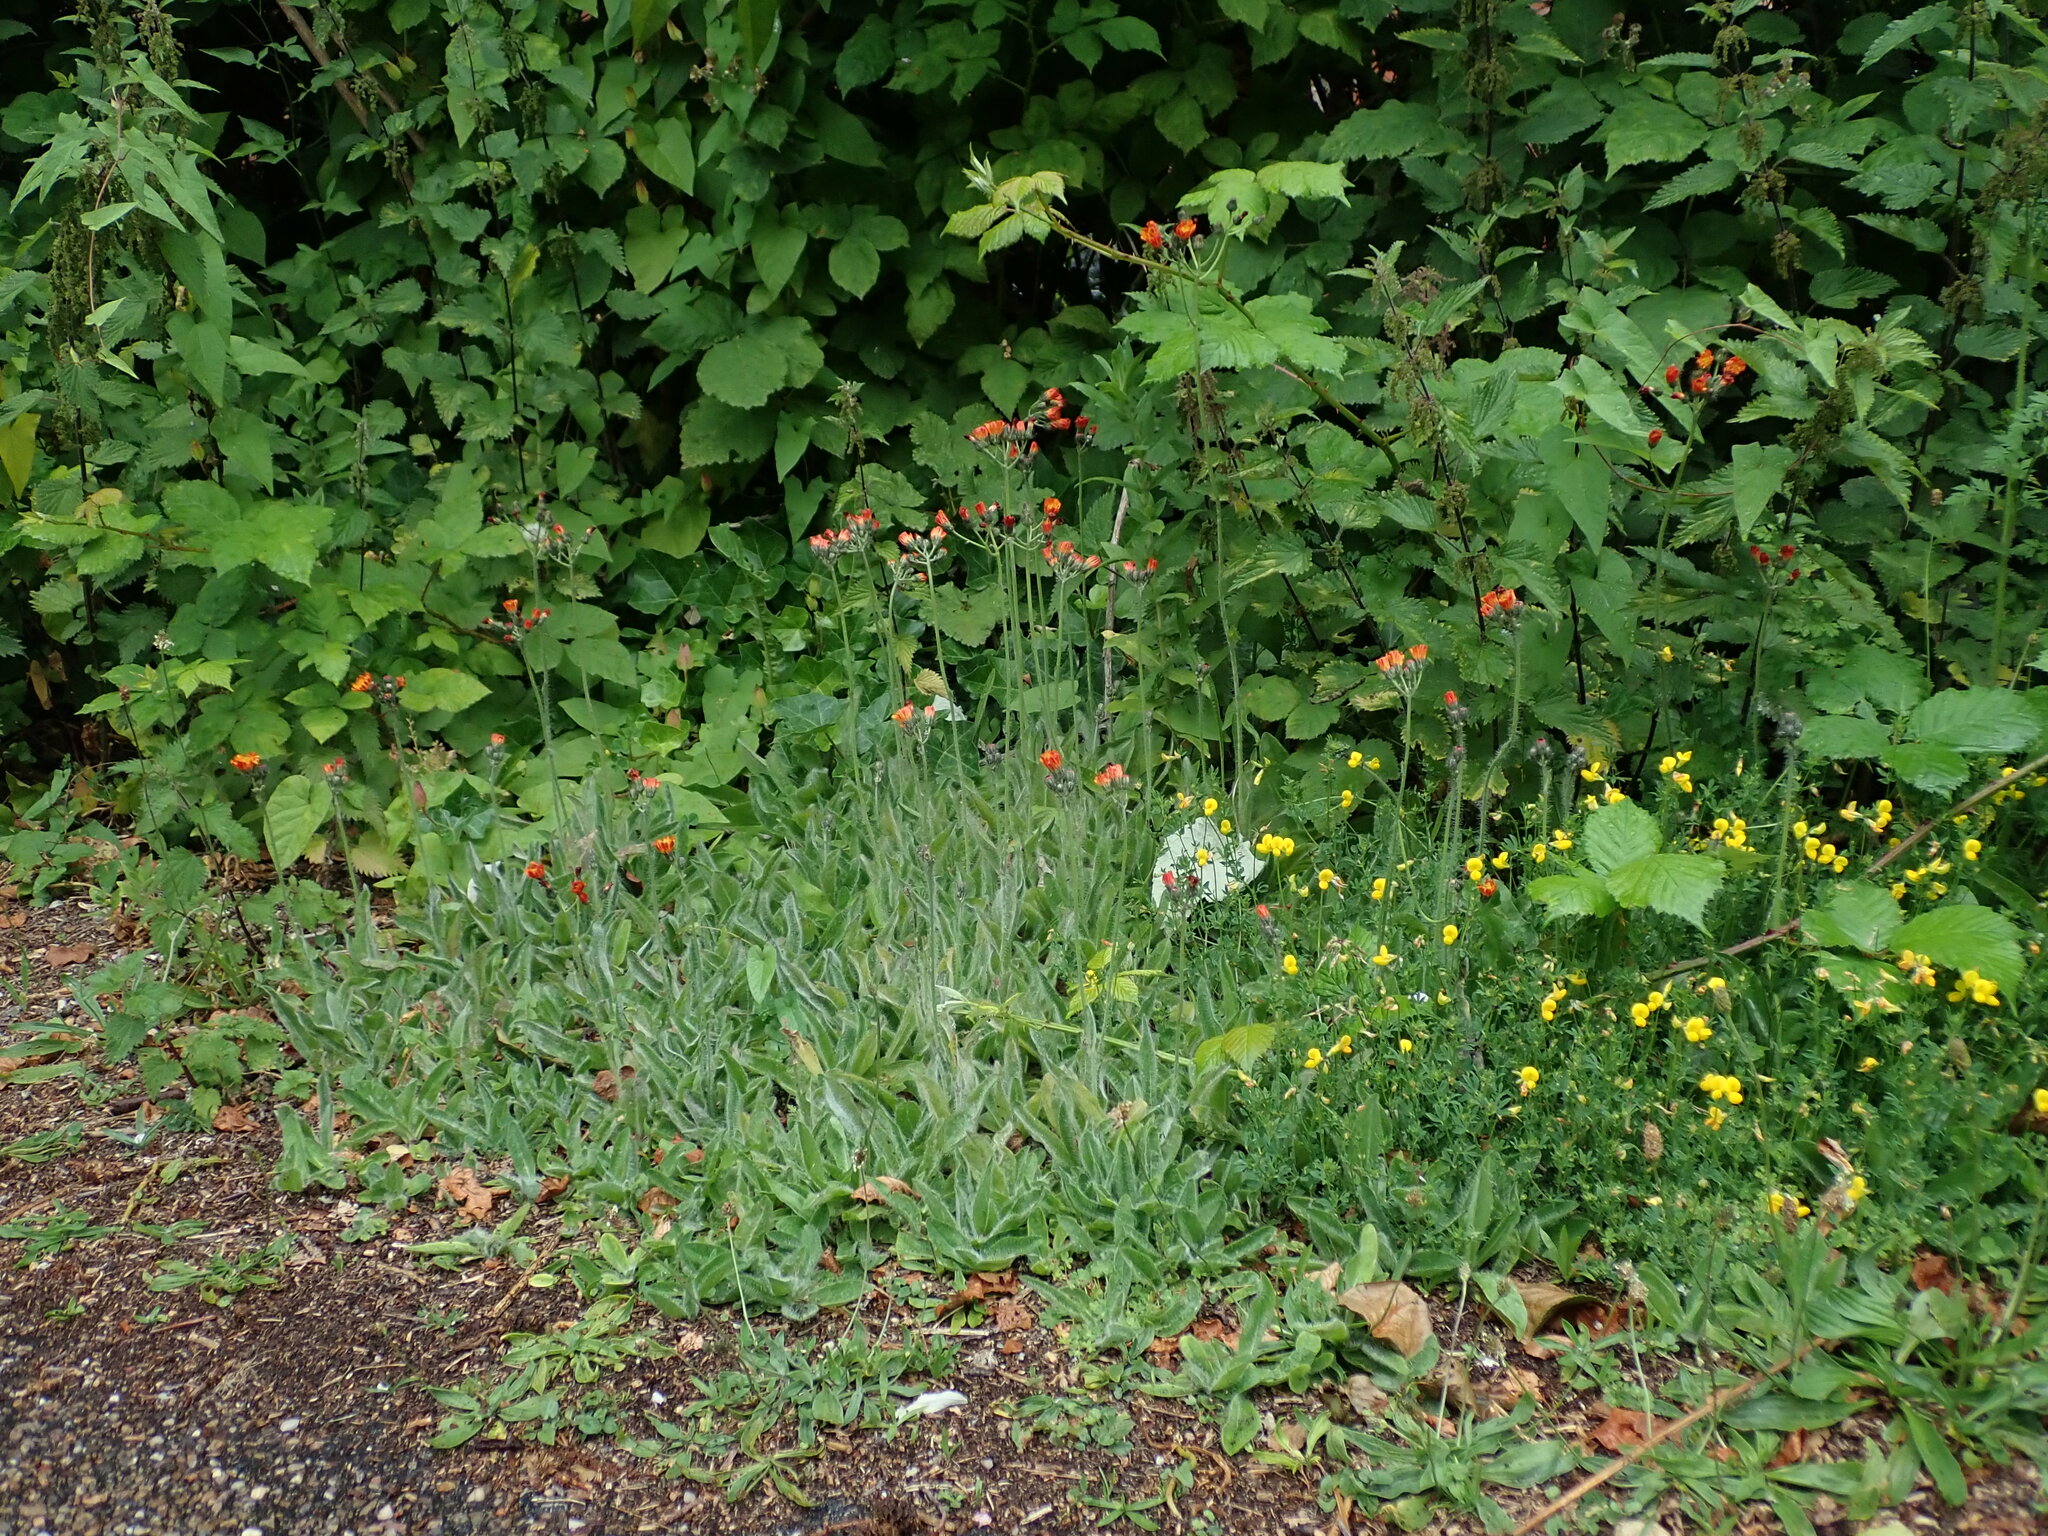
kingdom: Plantae
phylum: Tracheophyta
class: Magnoliopsida
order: Asterales
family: Asteraceae
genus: Pilosella
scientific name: Pilosella aurantiaca
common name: Fox-and-cubs
